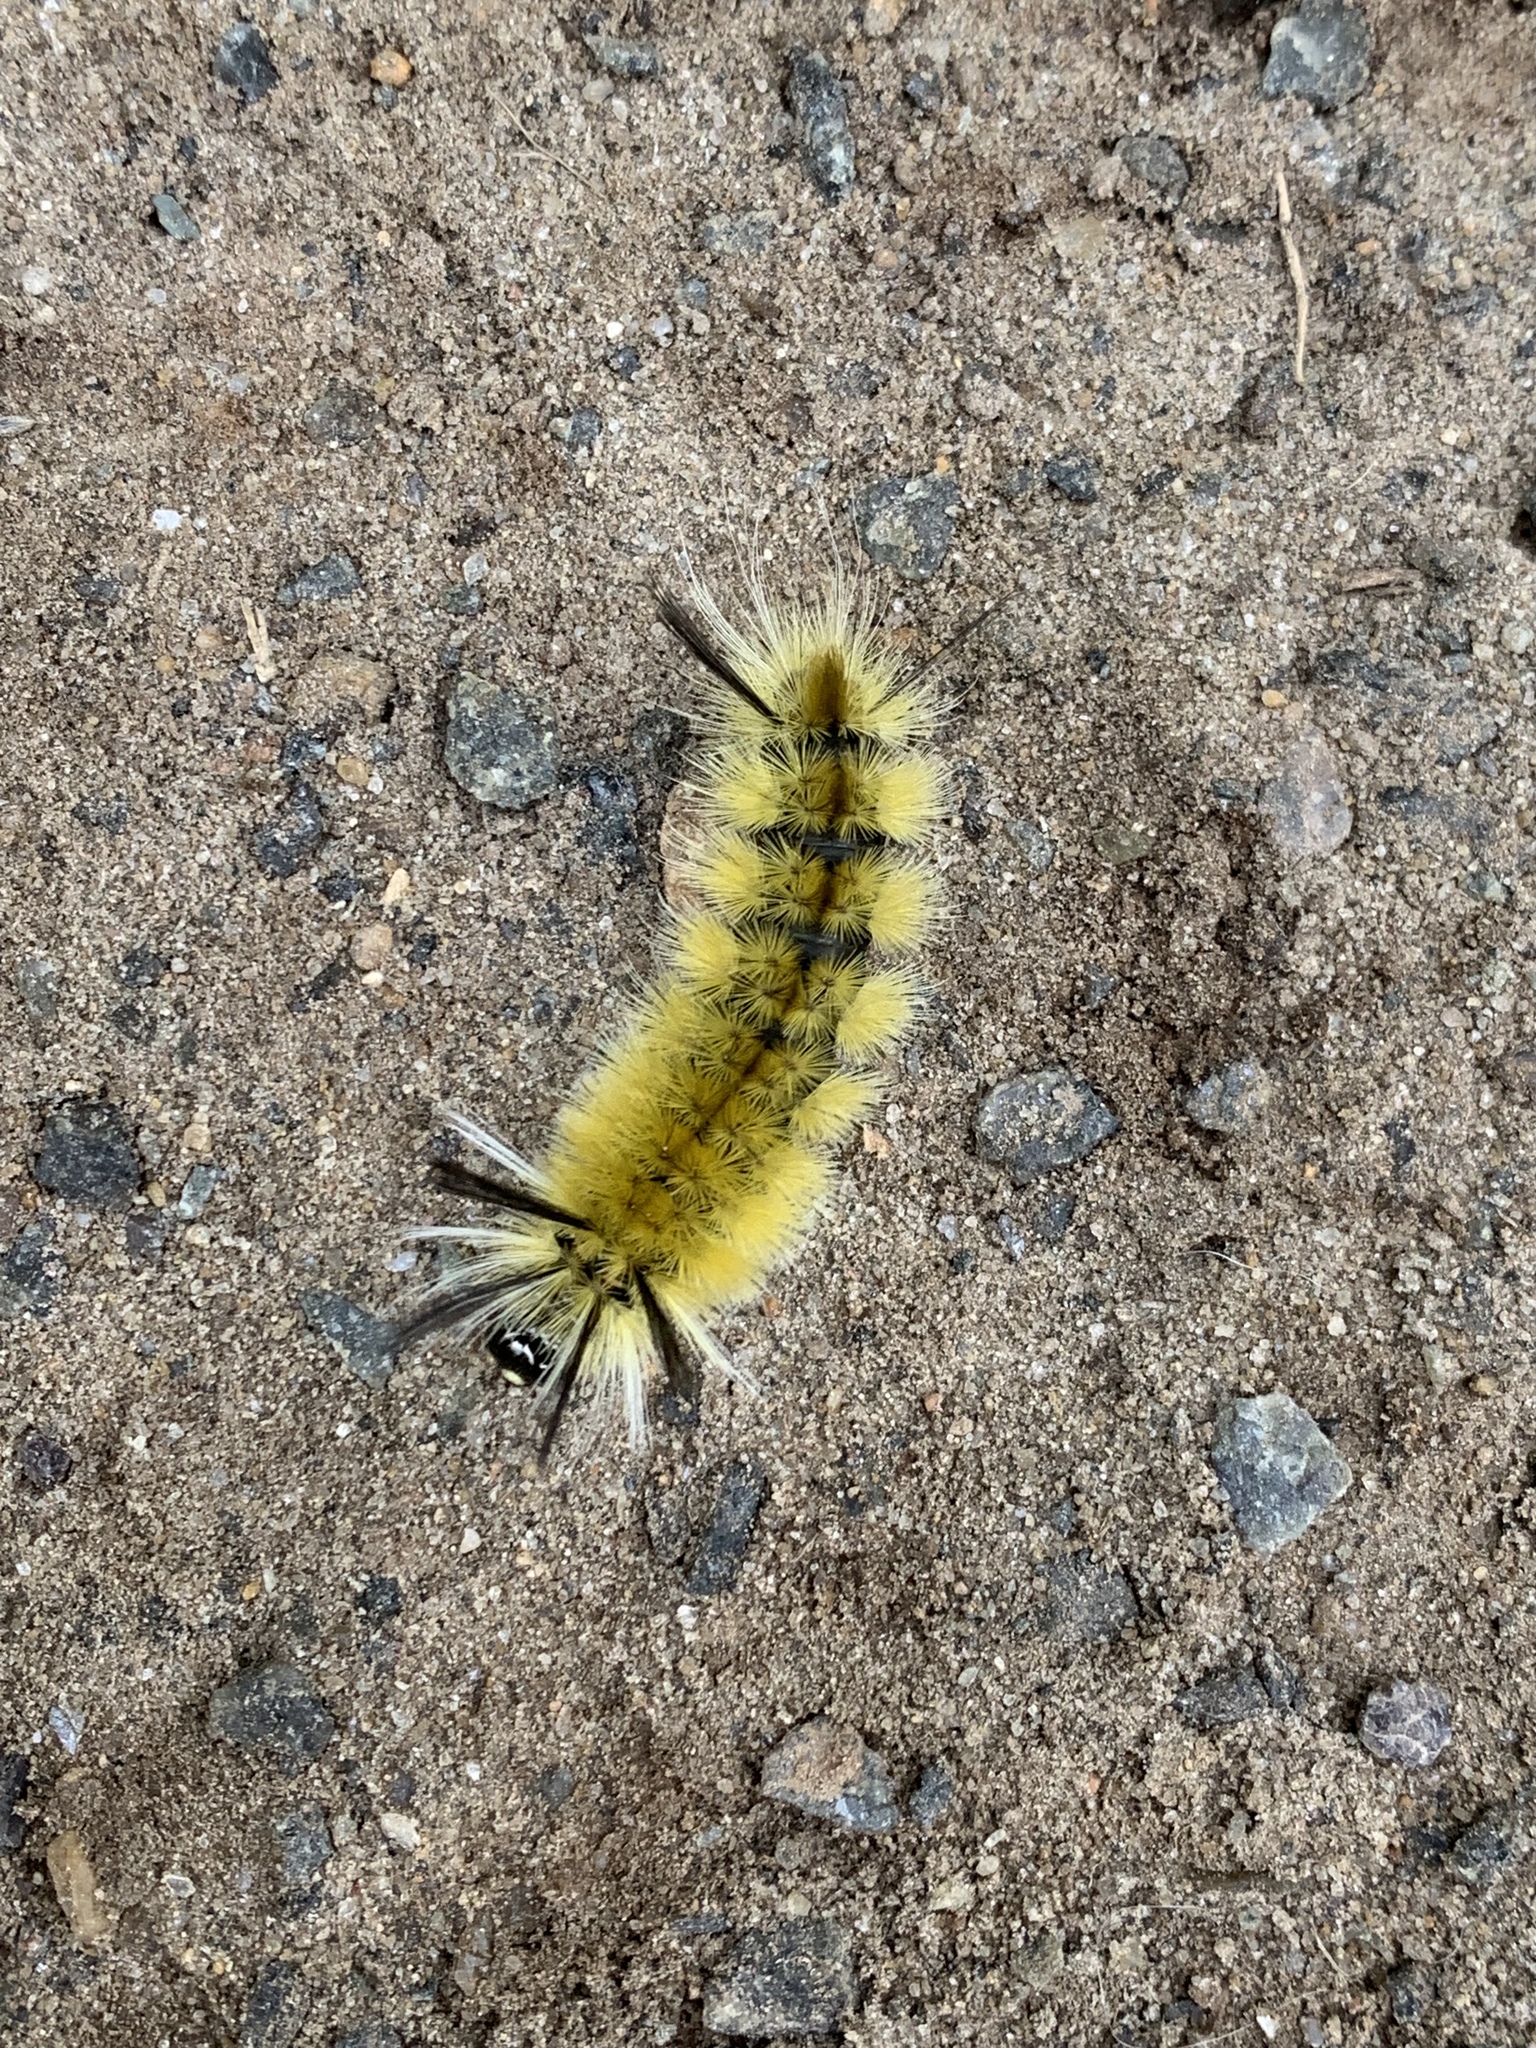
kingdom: Animalia
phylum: Arthropoda
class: Insecta
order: Lepidoptera
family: Erebidae
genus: Halysidota
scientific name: Halysidota tessellaris
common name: Banded tussock moth
